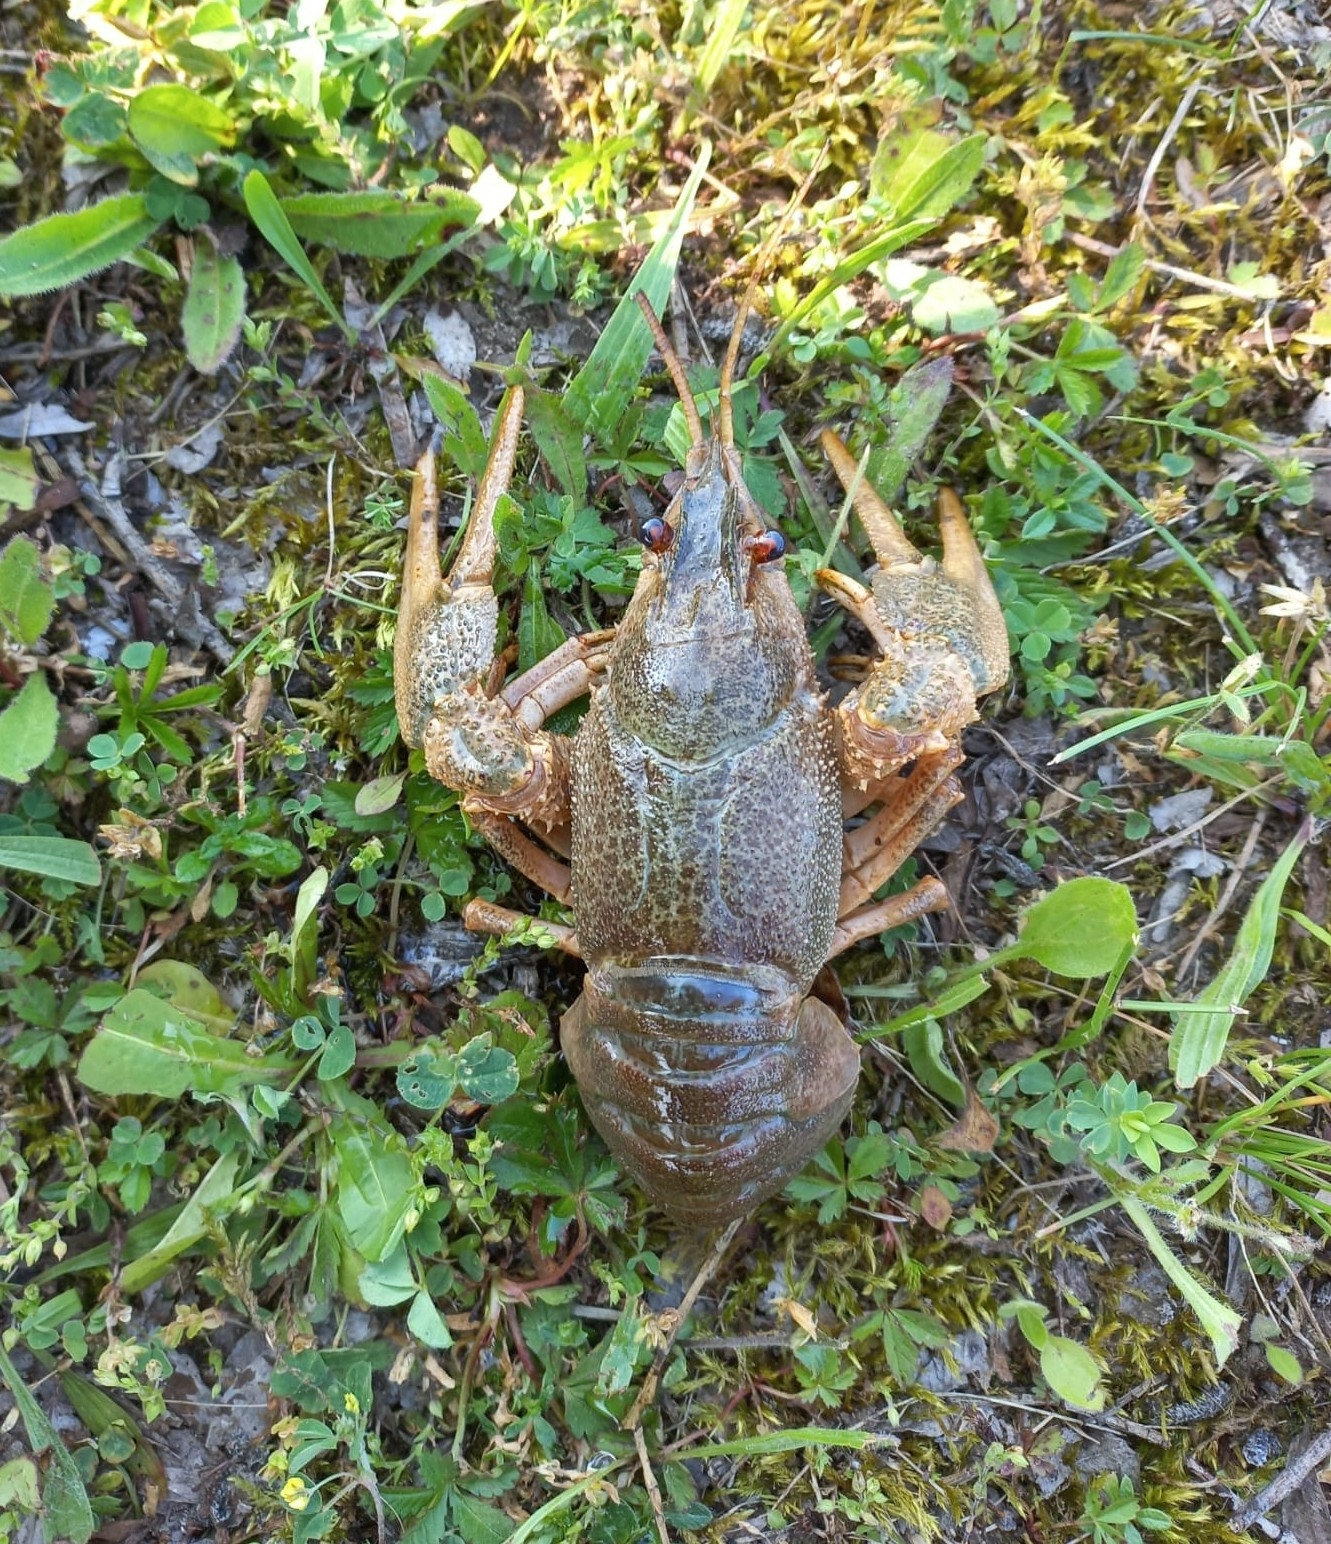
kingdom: Animalia
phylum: Arthropoda
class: Malacostraca
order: Decapoda
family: Astacidae
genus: Pontastacus
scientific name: Pontastacus leptodactylus
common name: Danube crayfish
